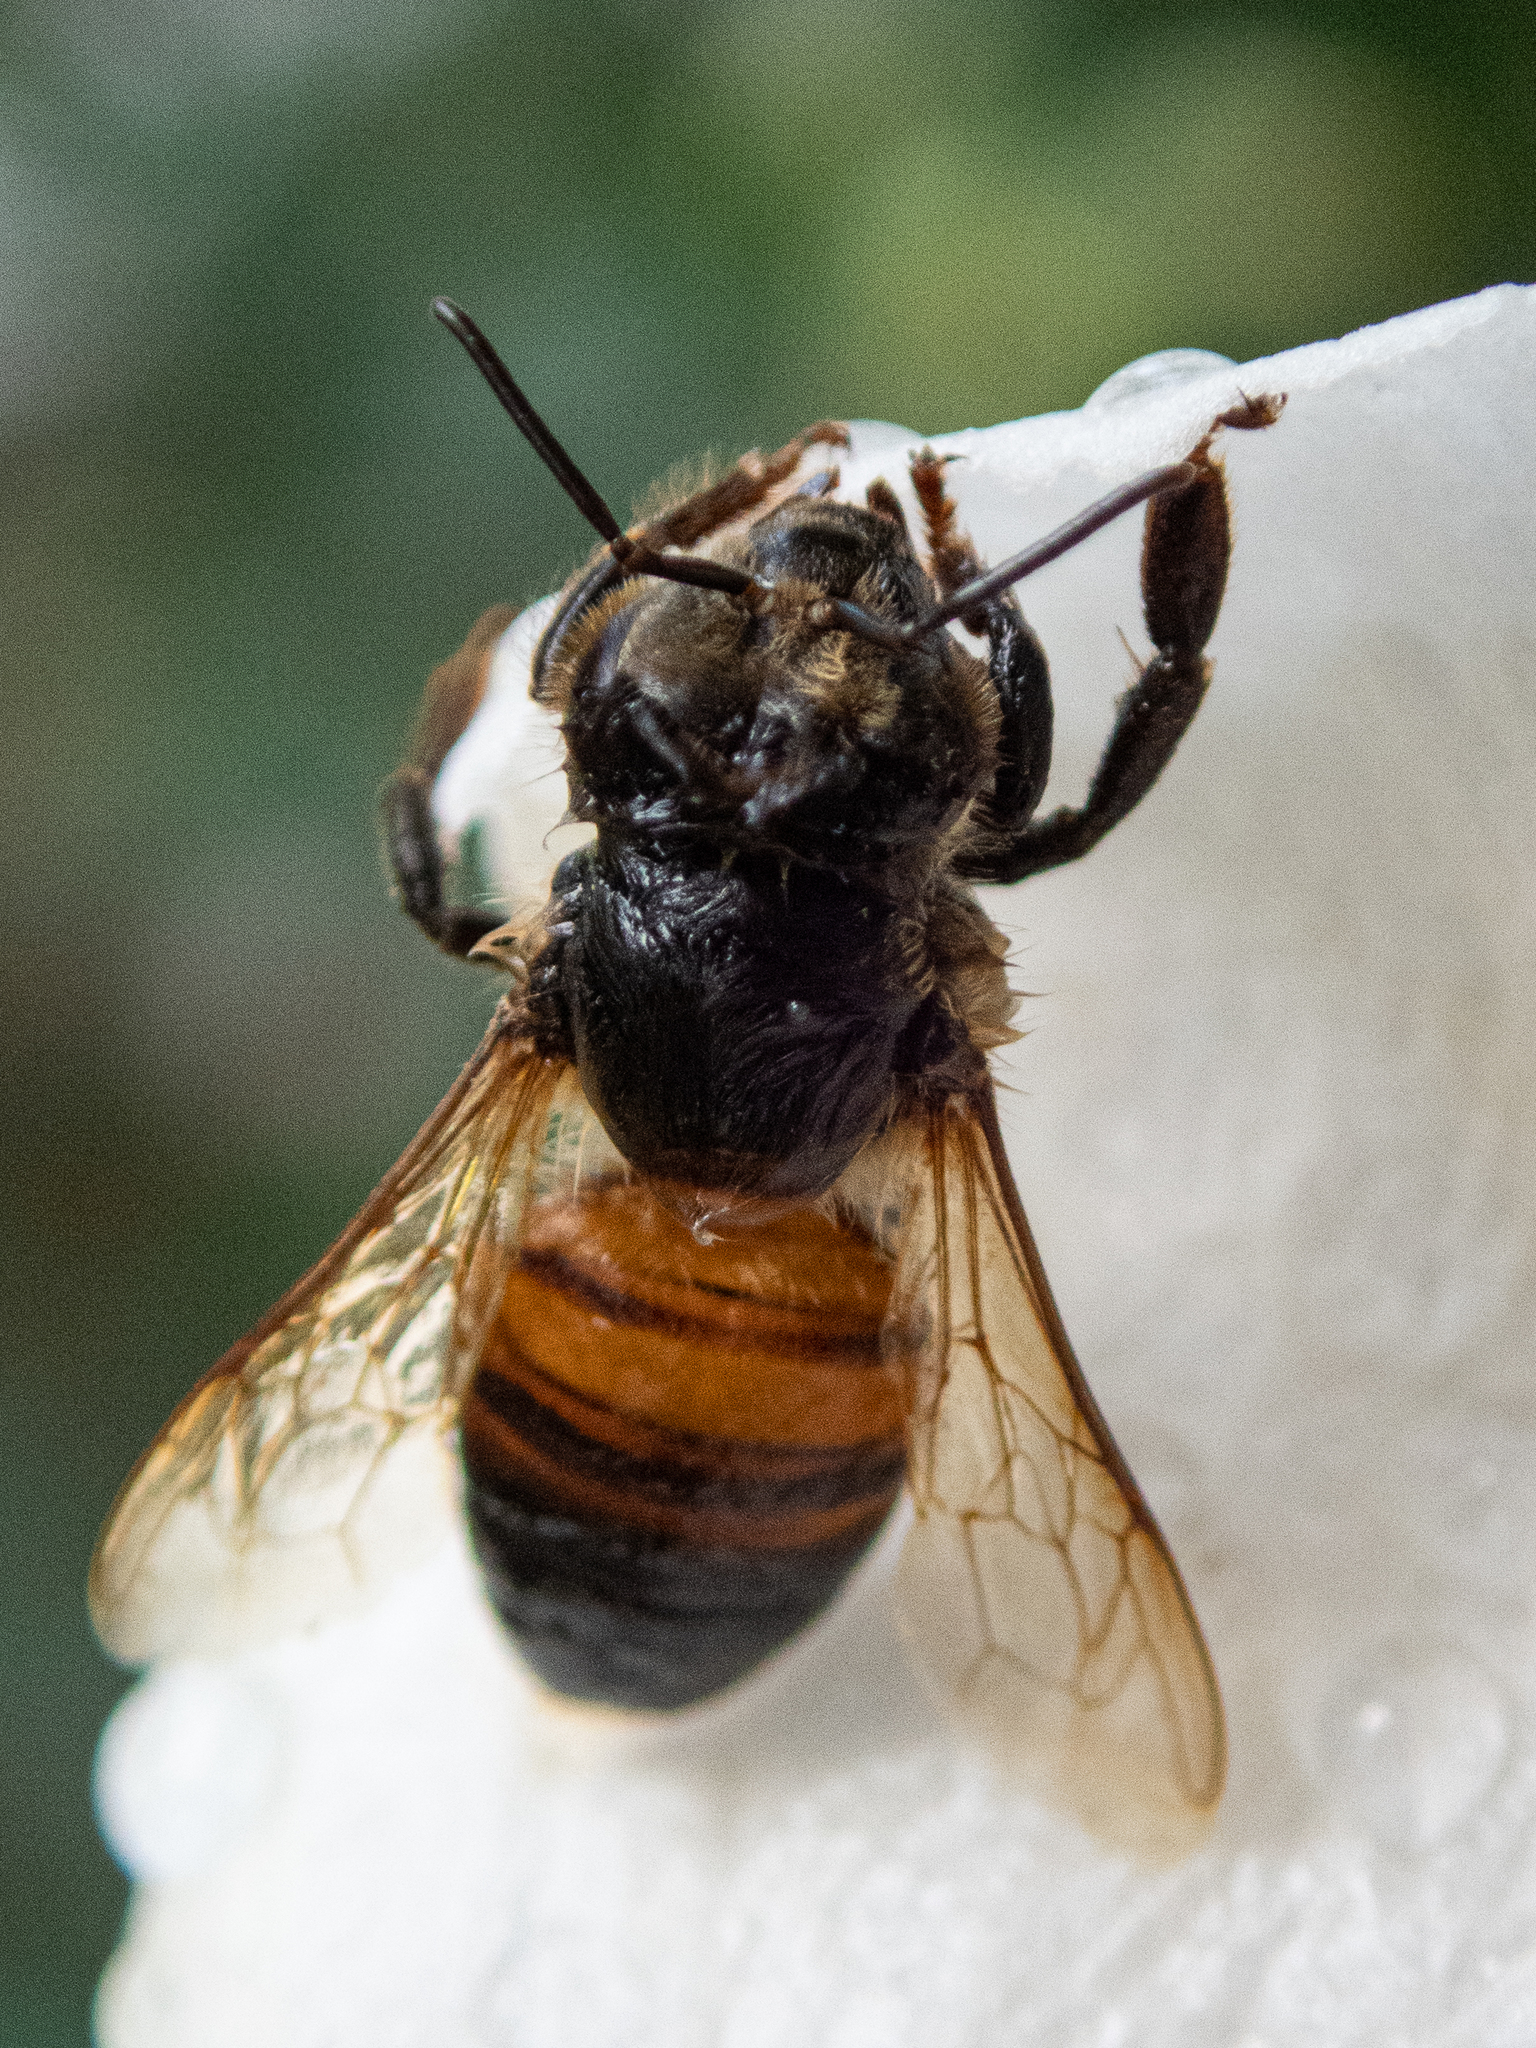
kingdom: Animalia
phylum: Arthropoda
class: Insecta
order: Hymenoptera
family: Apidae
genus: Apis
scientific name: Apis mellifera
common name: Honey bee
